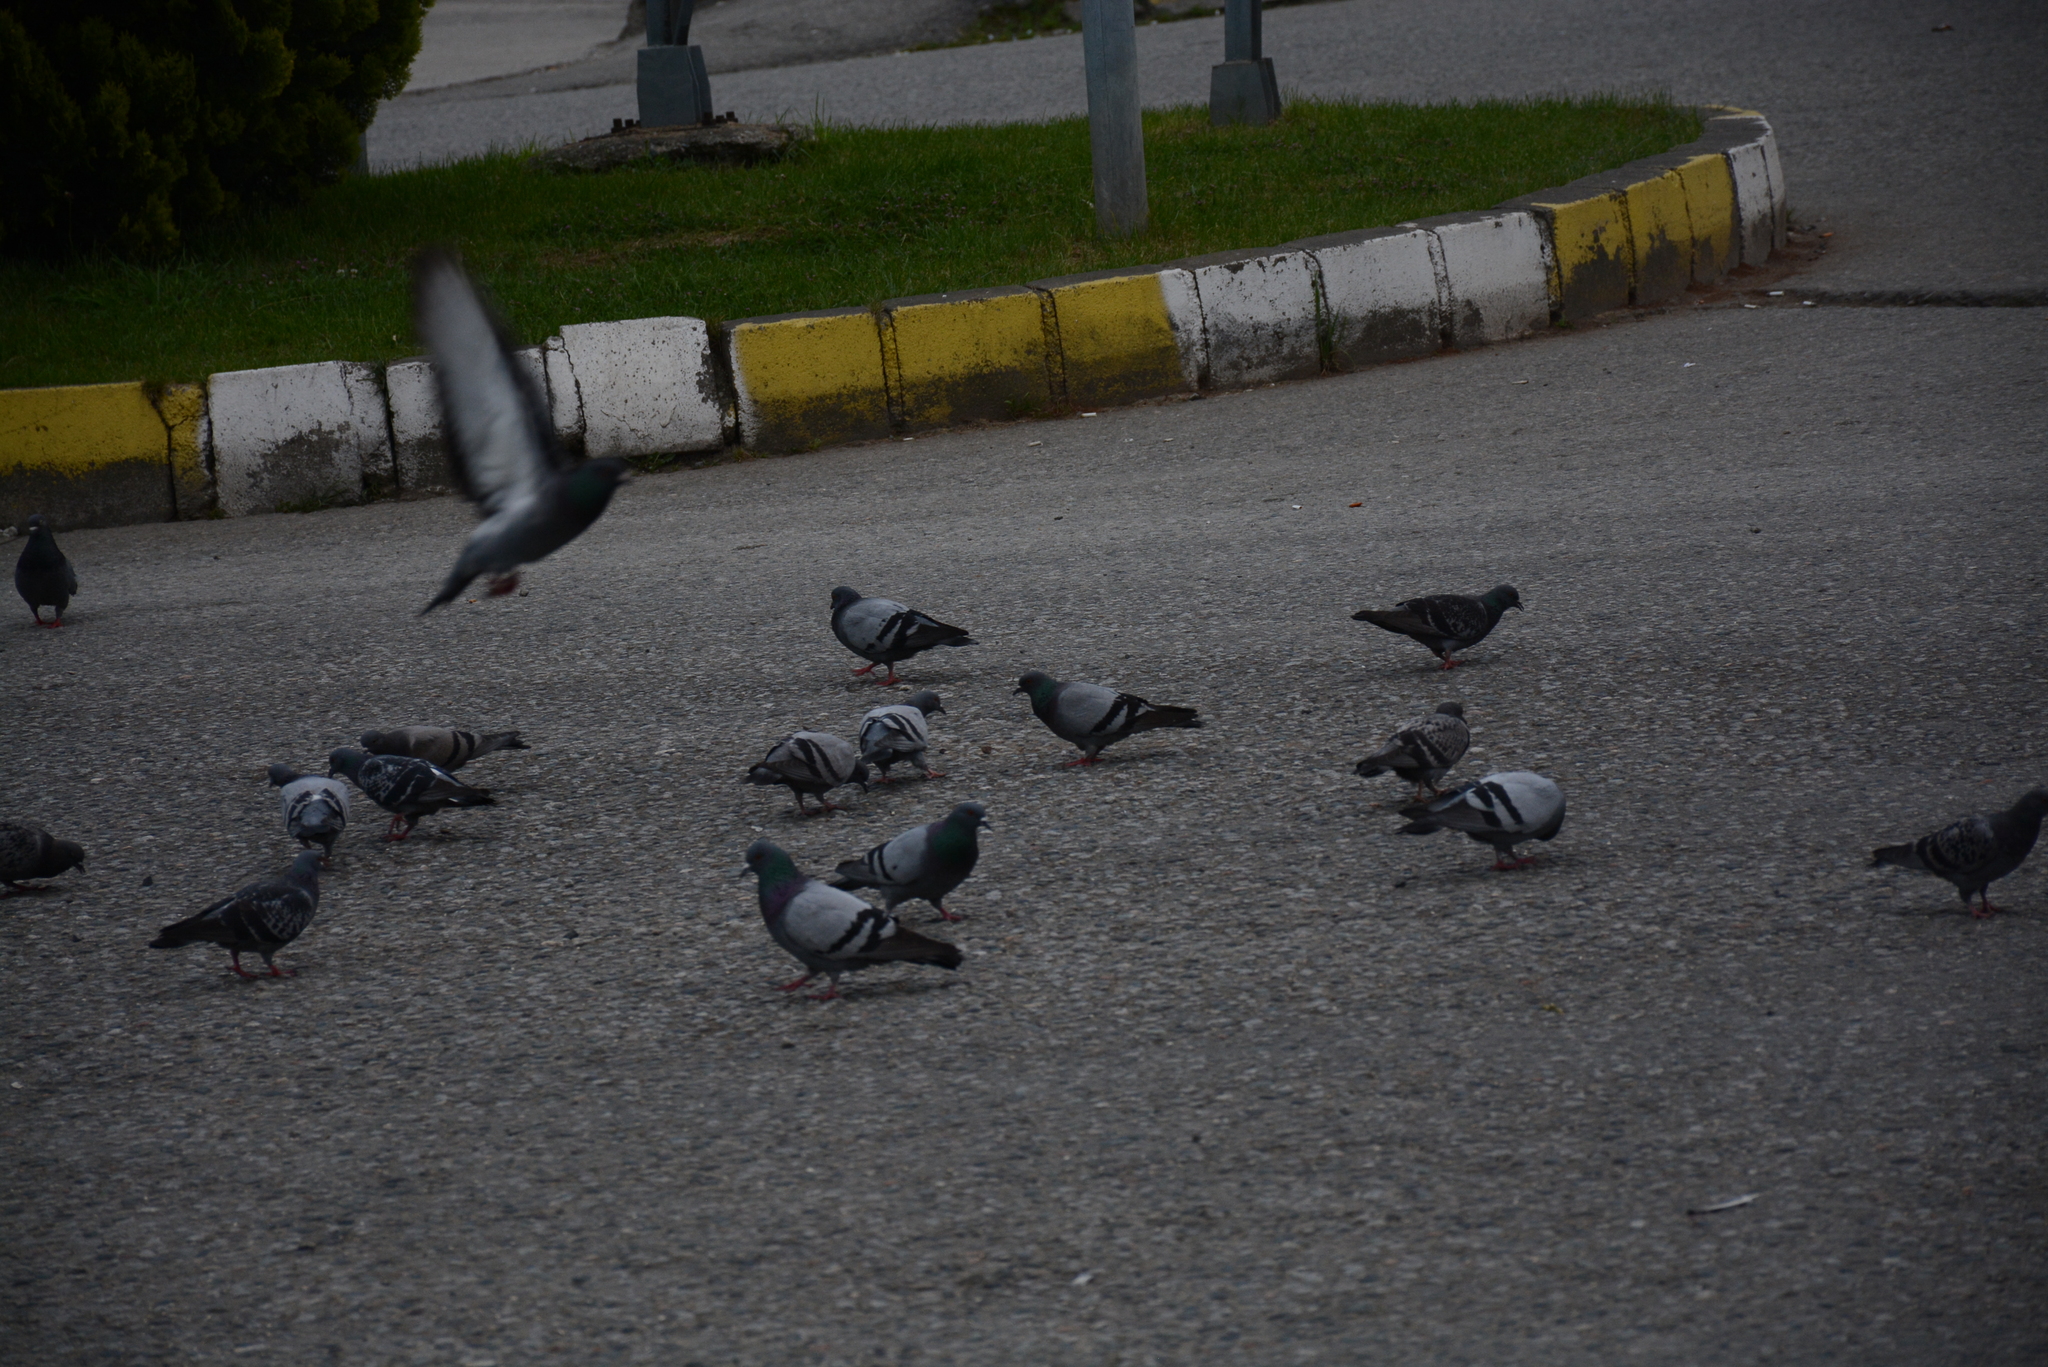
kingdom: Animalia
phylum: Chordata
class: Aves
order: Columbiformes
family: Columbidae
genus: Columba
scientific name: Columba livia
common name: Rock pigeon
